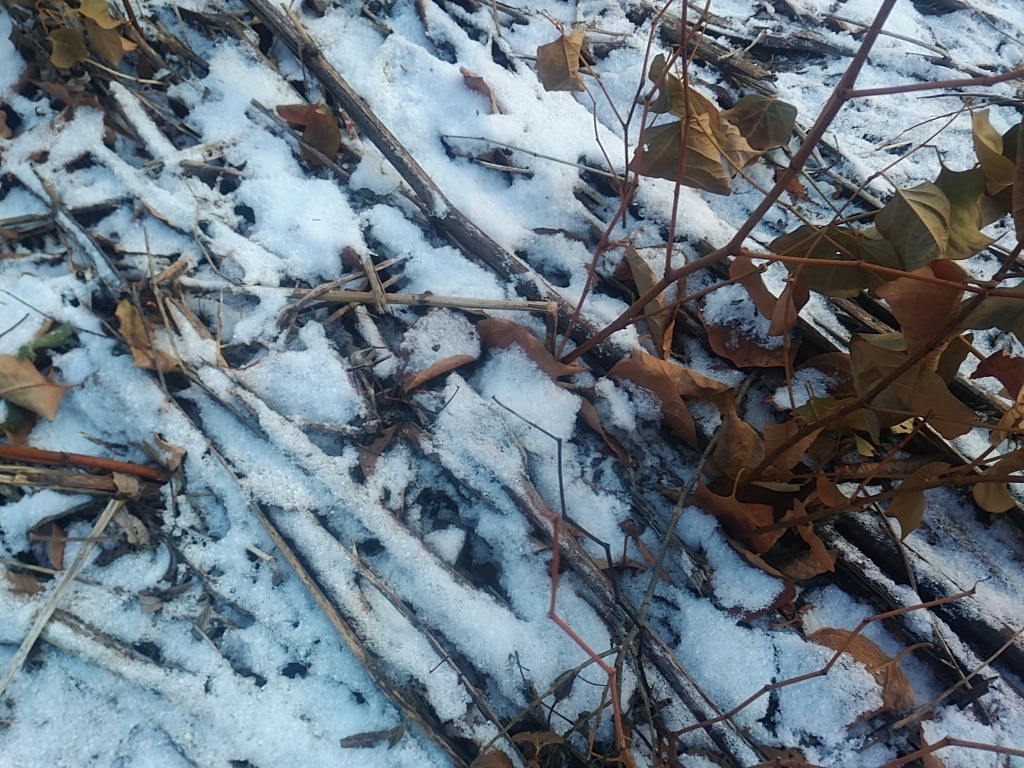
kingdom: Plantae
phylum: Tracheophyta
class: Magnoliopsida
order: Caryophyllales
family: Polygonaceae
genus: Reynoutria
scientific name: Reynoutria japonica
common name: Japanese knotweed
